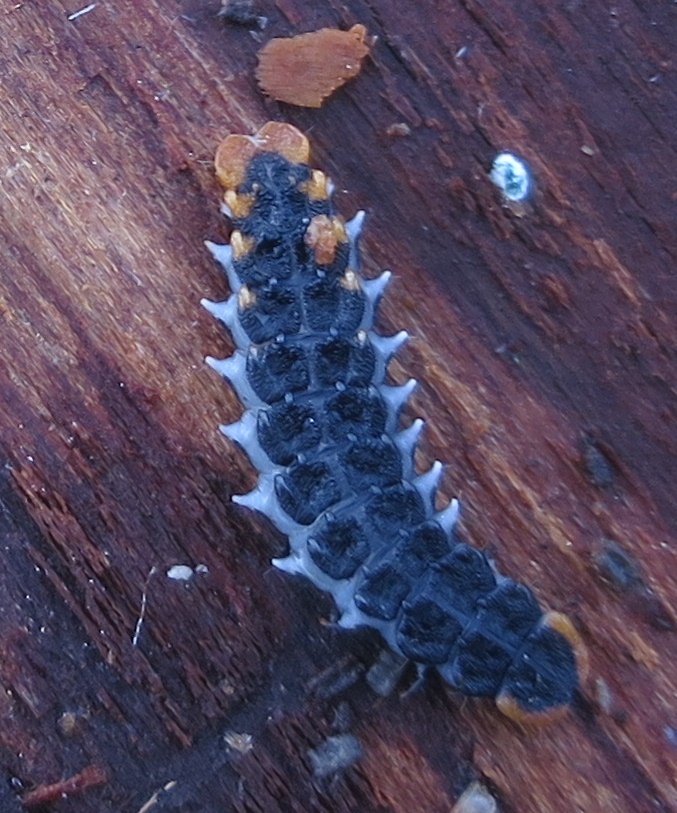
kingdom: Animalia
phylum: Arthropoda
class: Insecta
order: Coleoptera
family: Lycidae
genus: Porrostoma
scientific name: Porrostoma rufipenne
